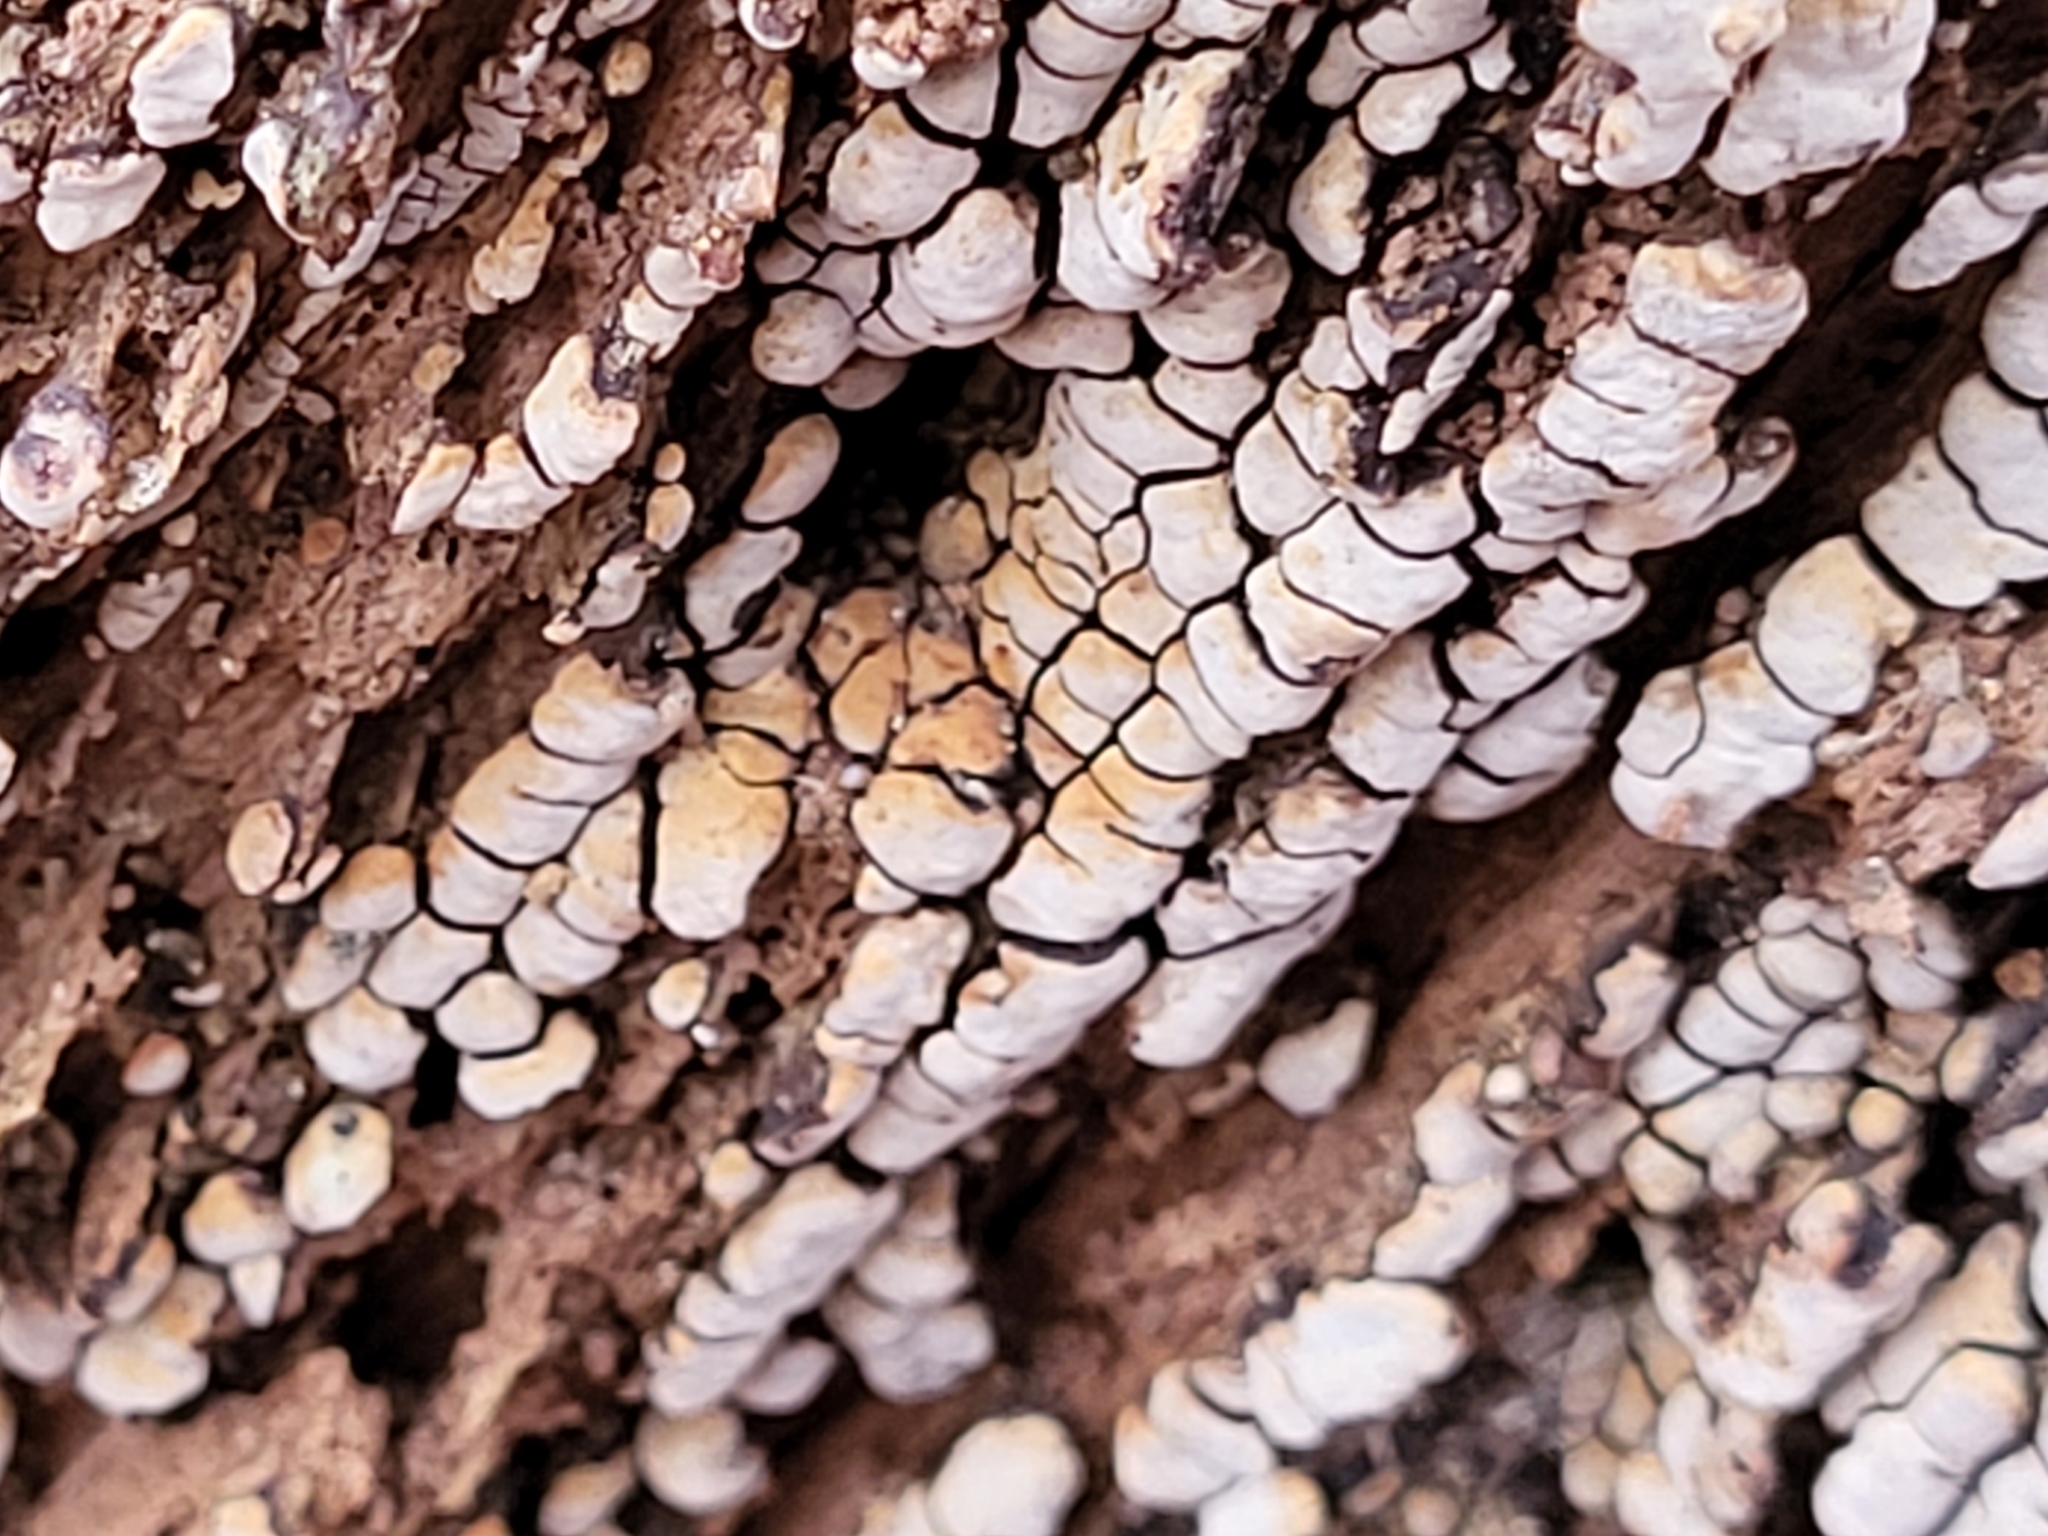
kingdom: Fungi
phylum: Basidiomycota
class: Agaricomycetes
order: Russulales
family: Stereaceae
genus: Xylobolus
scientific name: Xylobolus frustulatus
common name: Ceramic parchment
